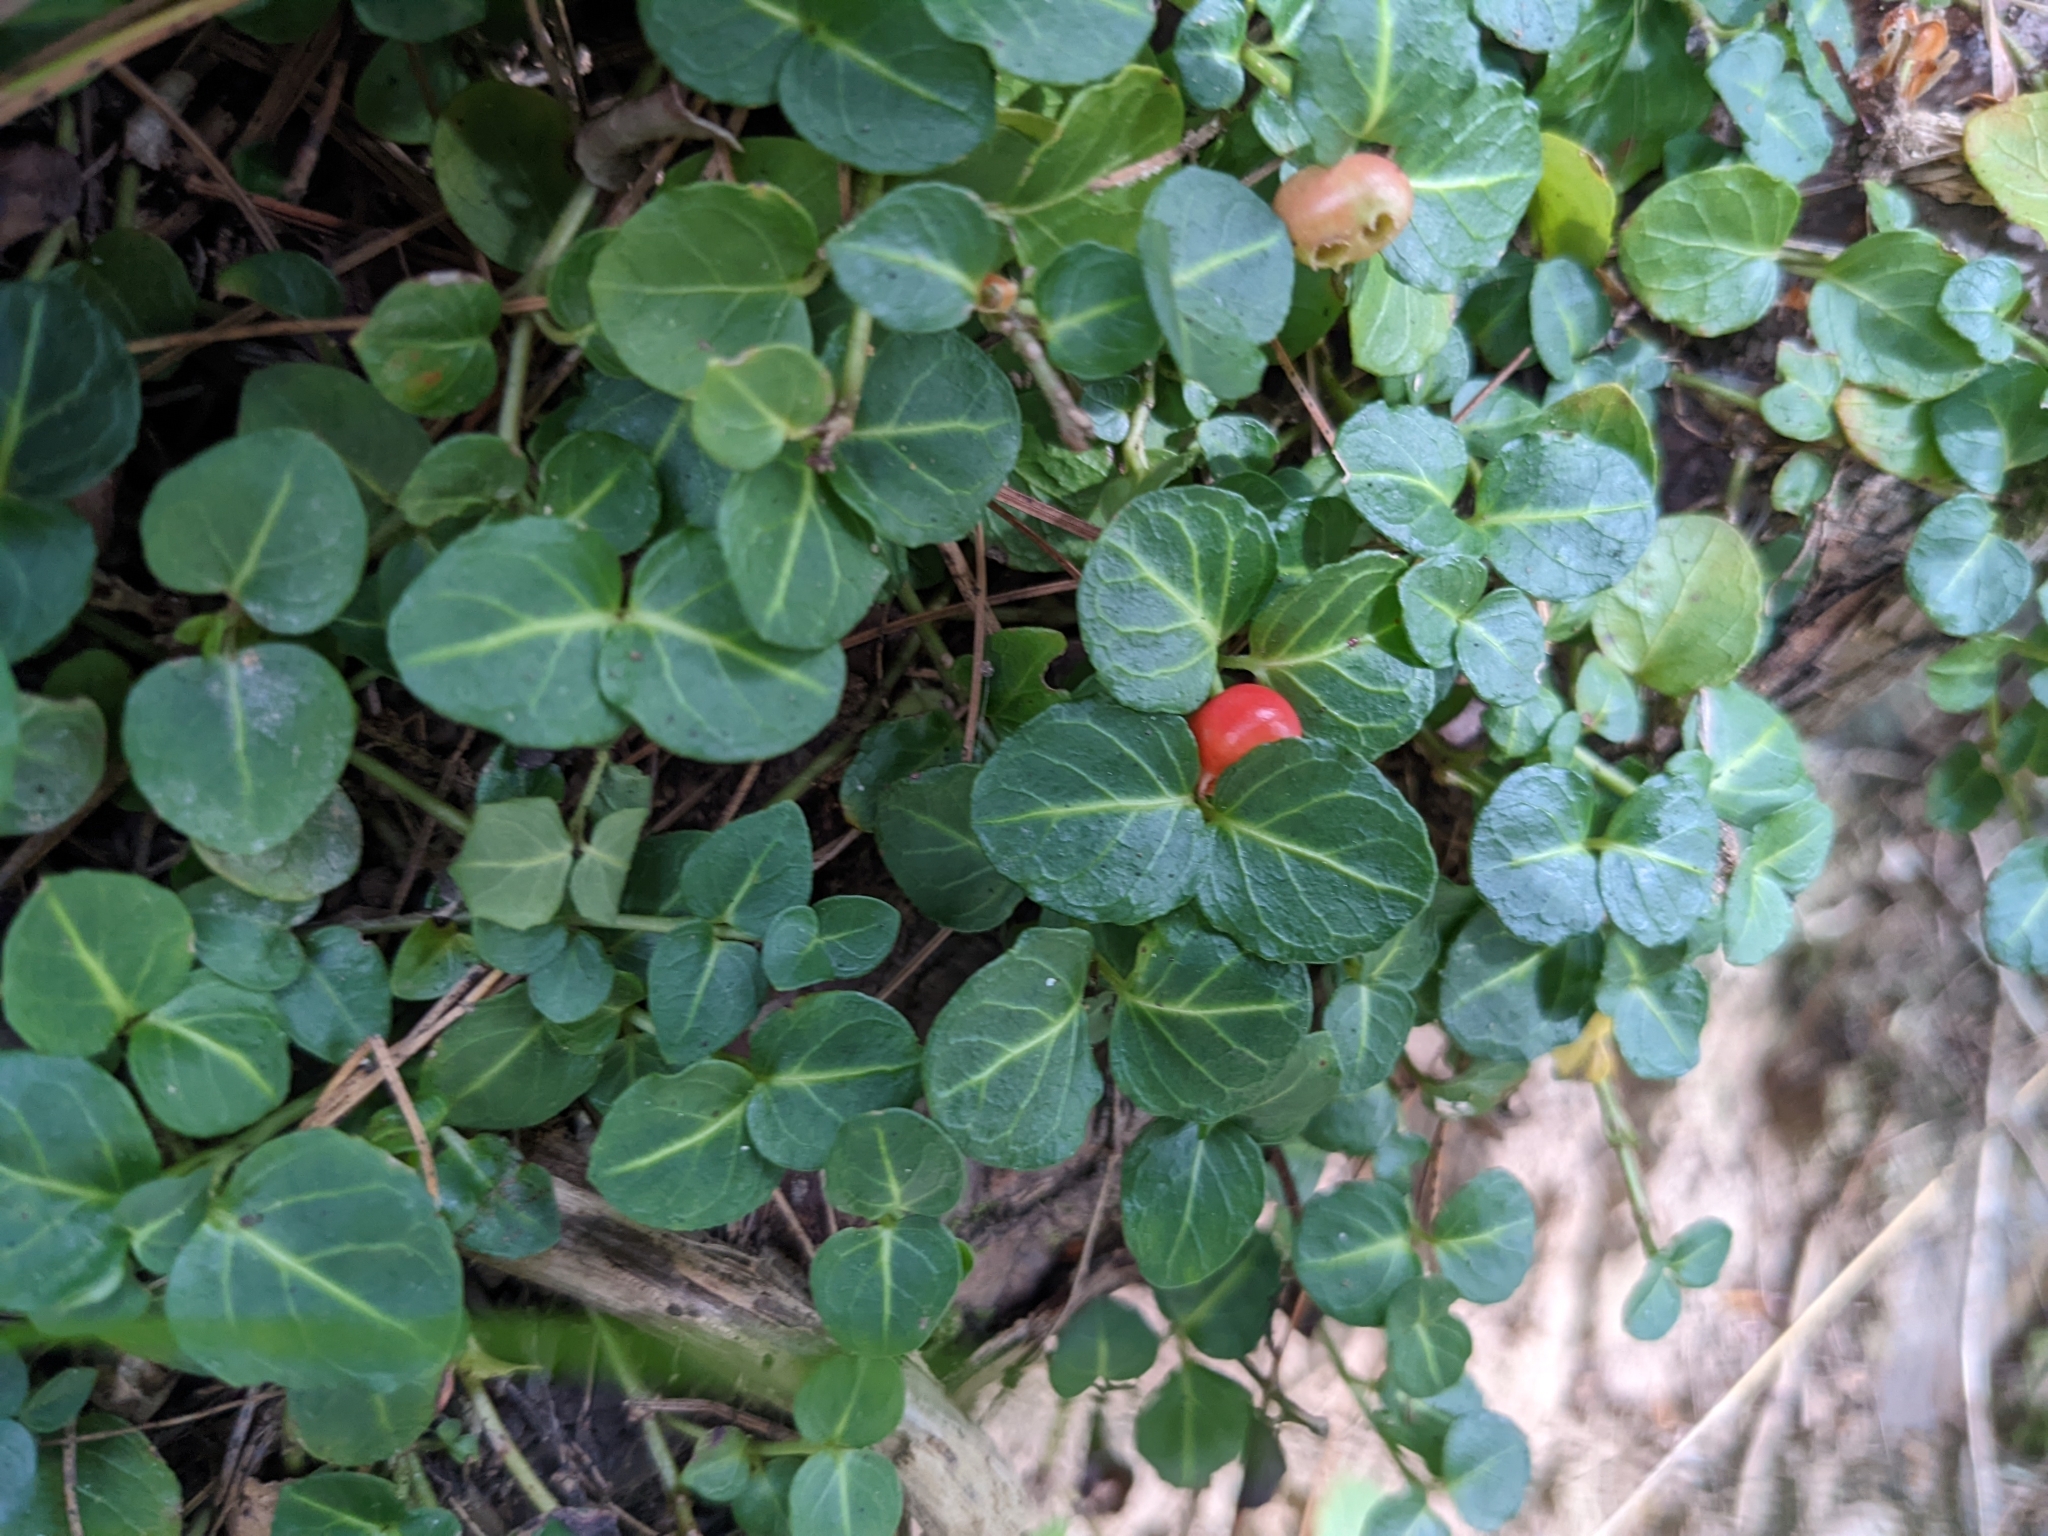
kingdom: Plantae
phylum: Tracheophyta
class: Magnoliopsida
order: Gentianales
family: Rubiaceae
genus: Mitchella
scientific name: Mitchella repens
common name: Partridge-berry
